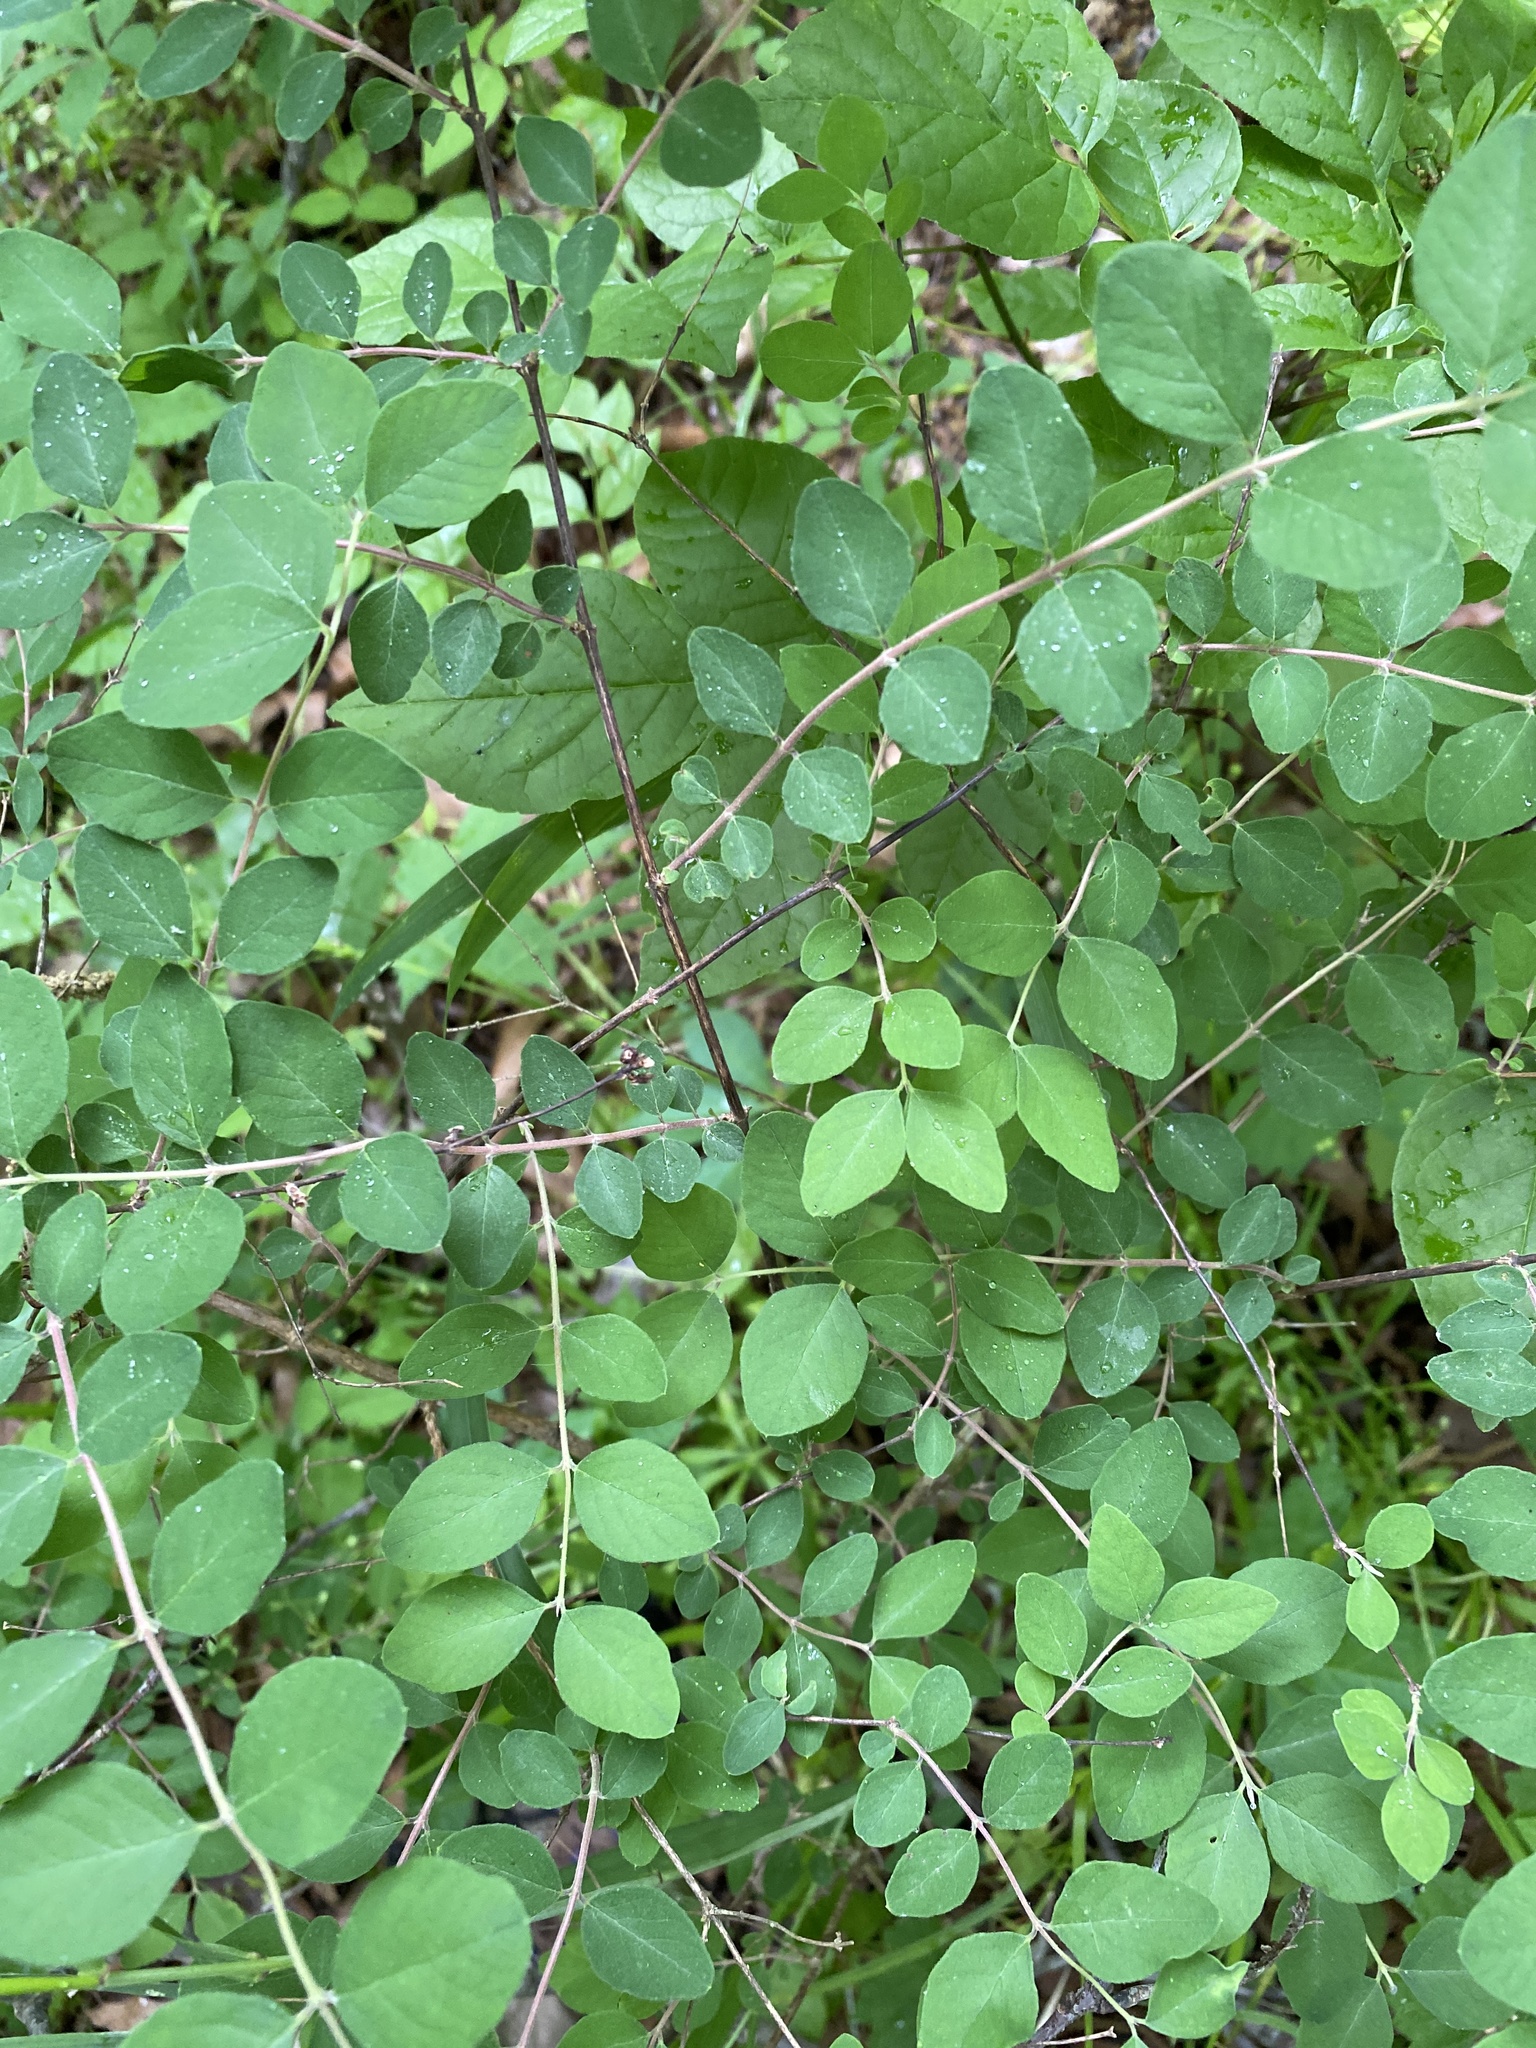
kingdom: Plantae
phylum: Tracheophyta
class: Magnoliopsida
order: Dipsacales
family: Caprifoliaceae
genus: Symphoricarpos
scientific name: Symphoricarpos orbiculatus
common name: Coralberry
